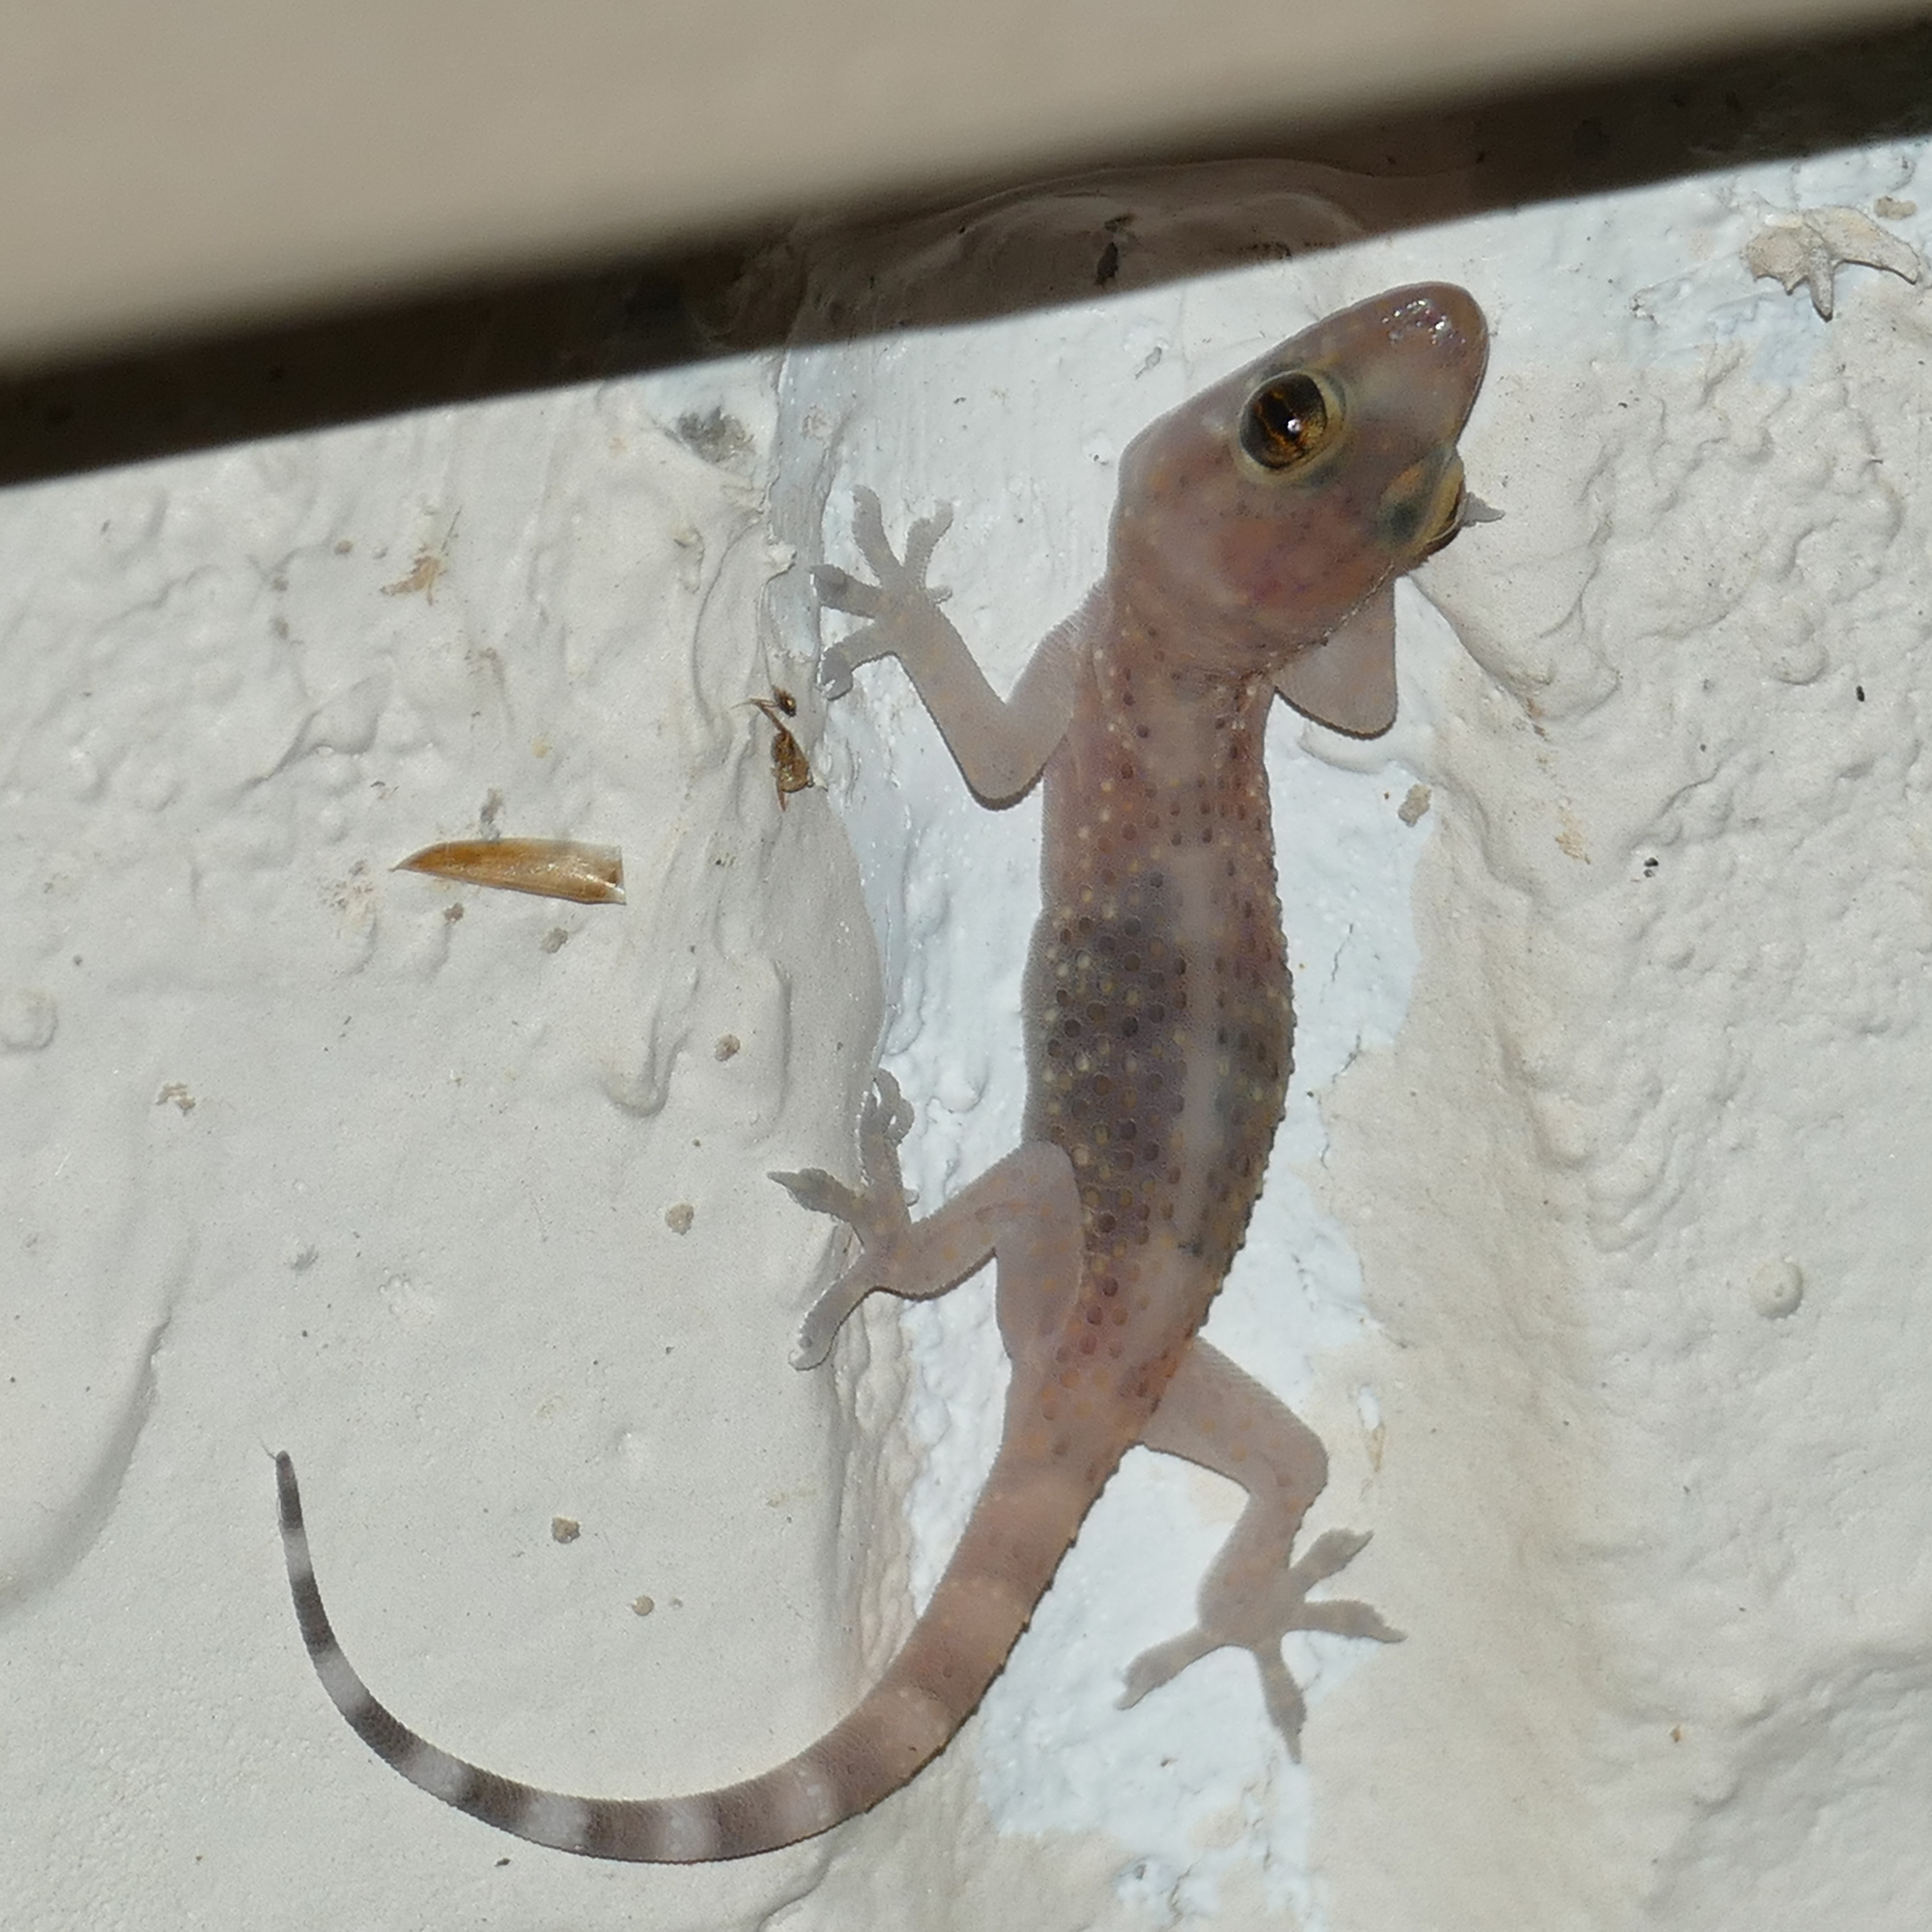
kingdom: Animalia
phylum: Chordata
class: Squamata
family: Gekkonidae
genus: Hemidactylus
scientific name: Hemidactylus turcicus
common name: Turkish gecko
